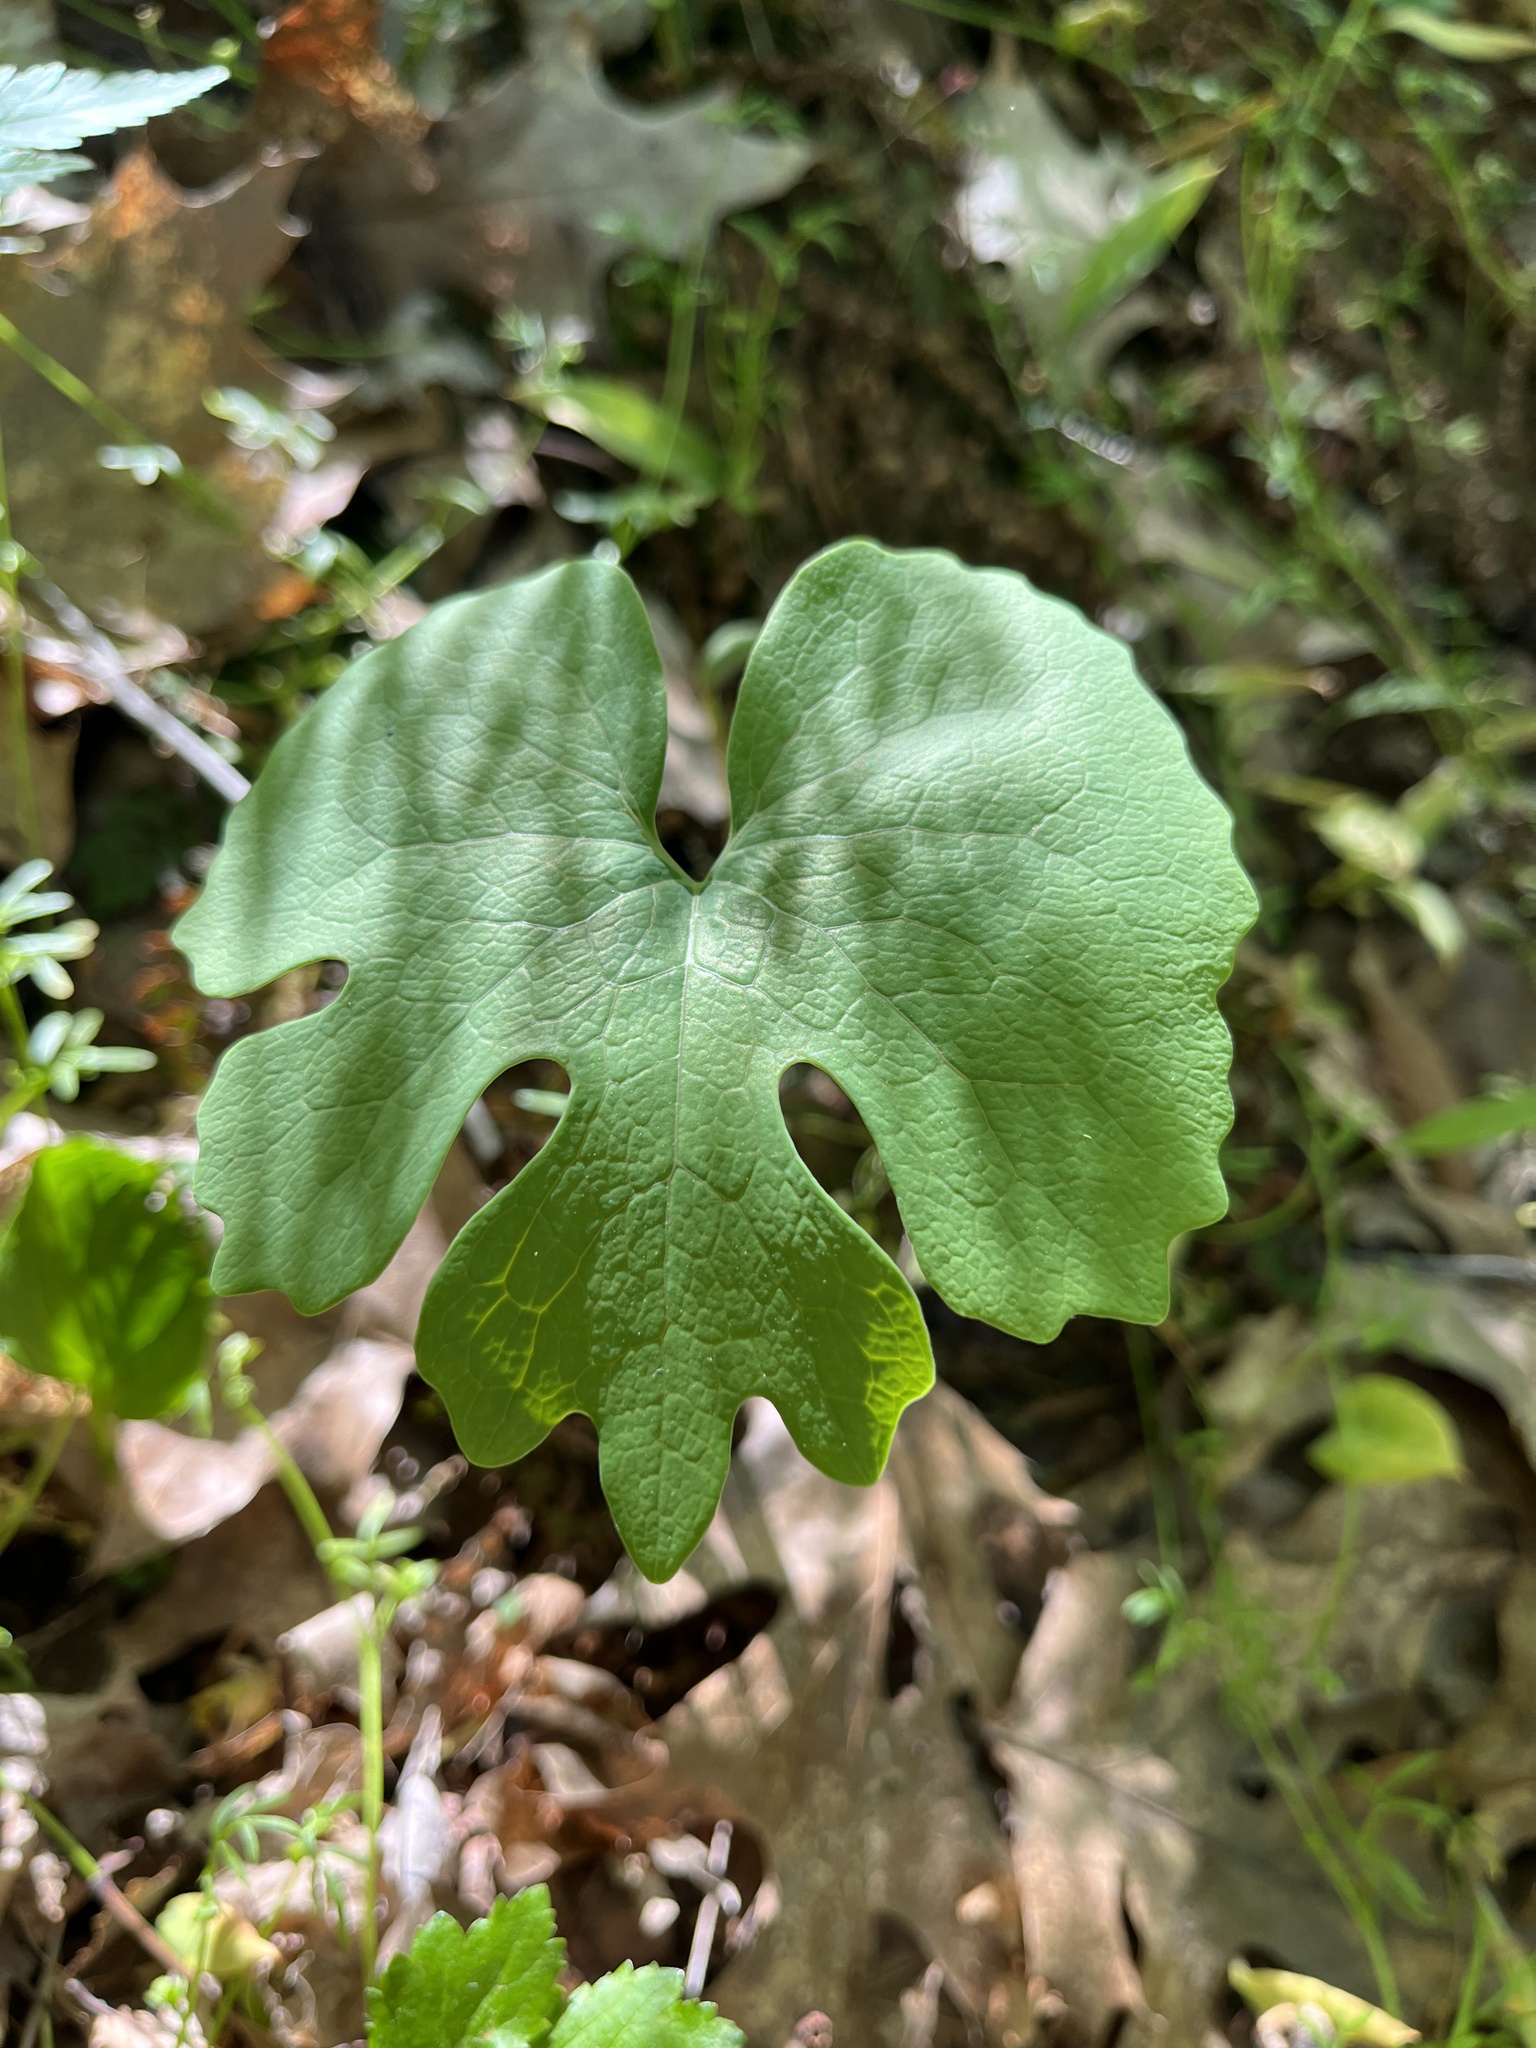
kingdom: Plantae
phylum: Tracheophyta
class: Magnoliopsida
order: Ranunculales
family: Papaveraceae
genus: Sanguinaria
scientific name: Sanguinaria canadensis
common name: Bloodroot
